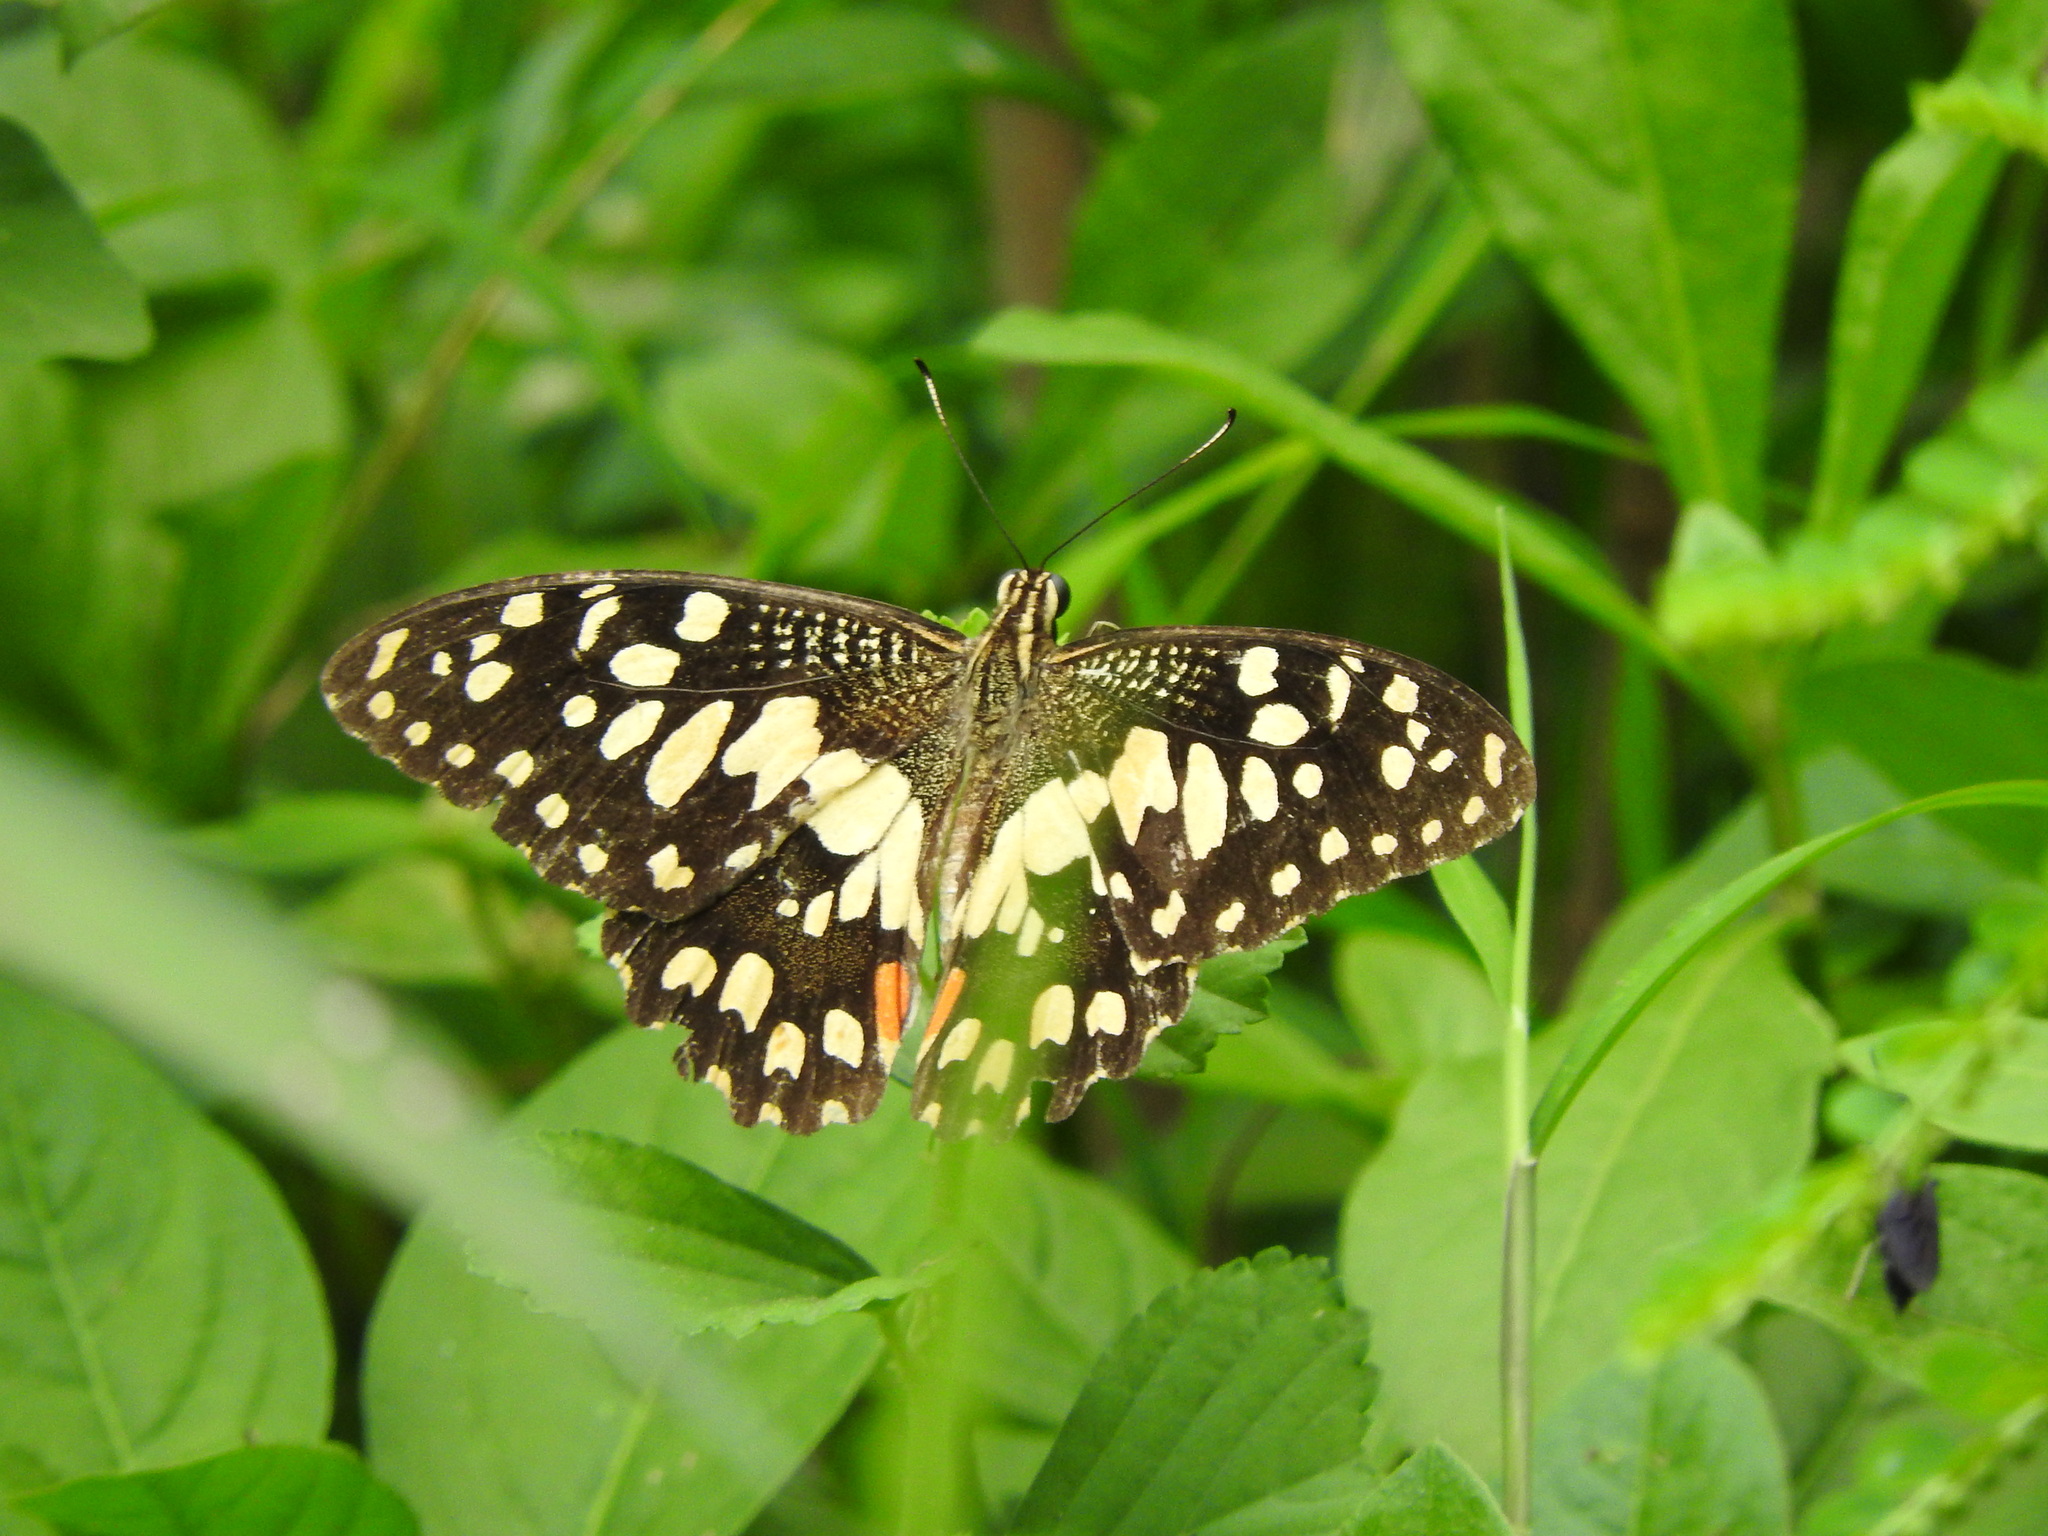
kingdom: Animalia
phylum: Arthropoda
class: Insecta
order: Lepidoptera
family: Papilionidae
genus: Papilio
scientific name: Papilio demoleus
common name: Lime butterfly
